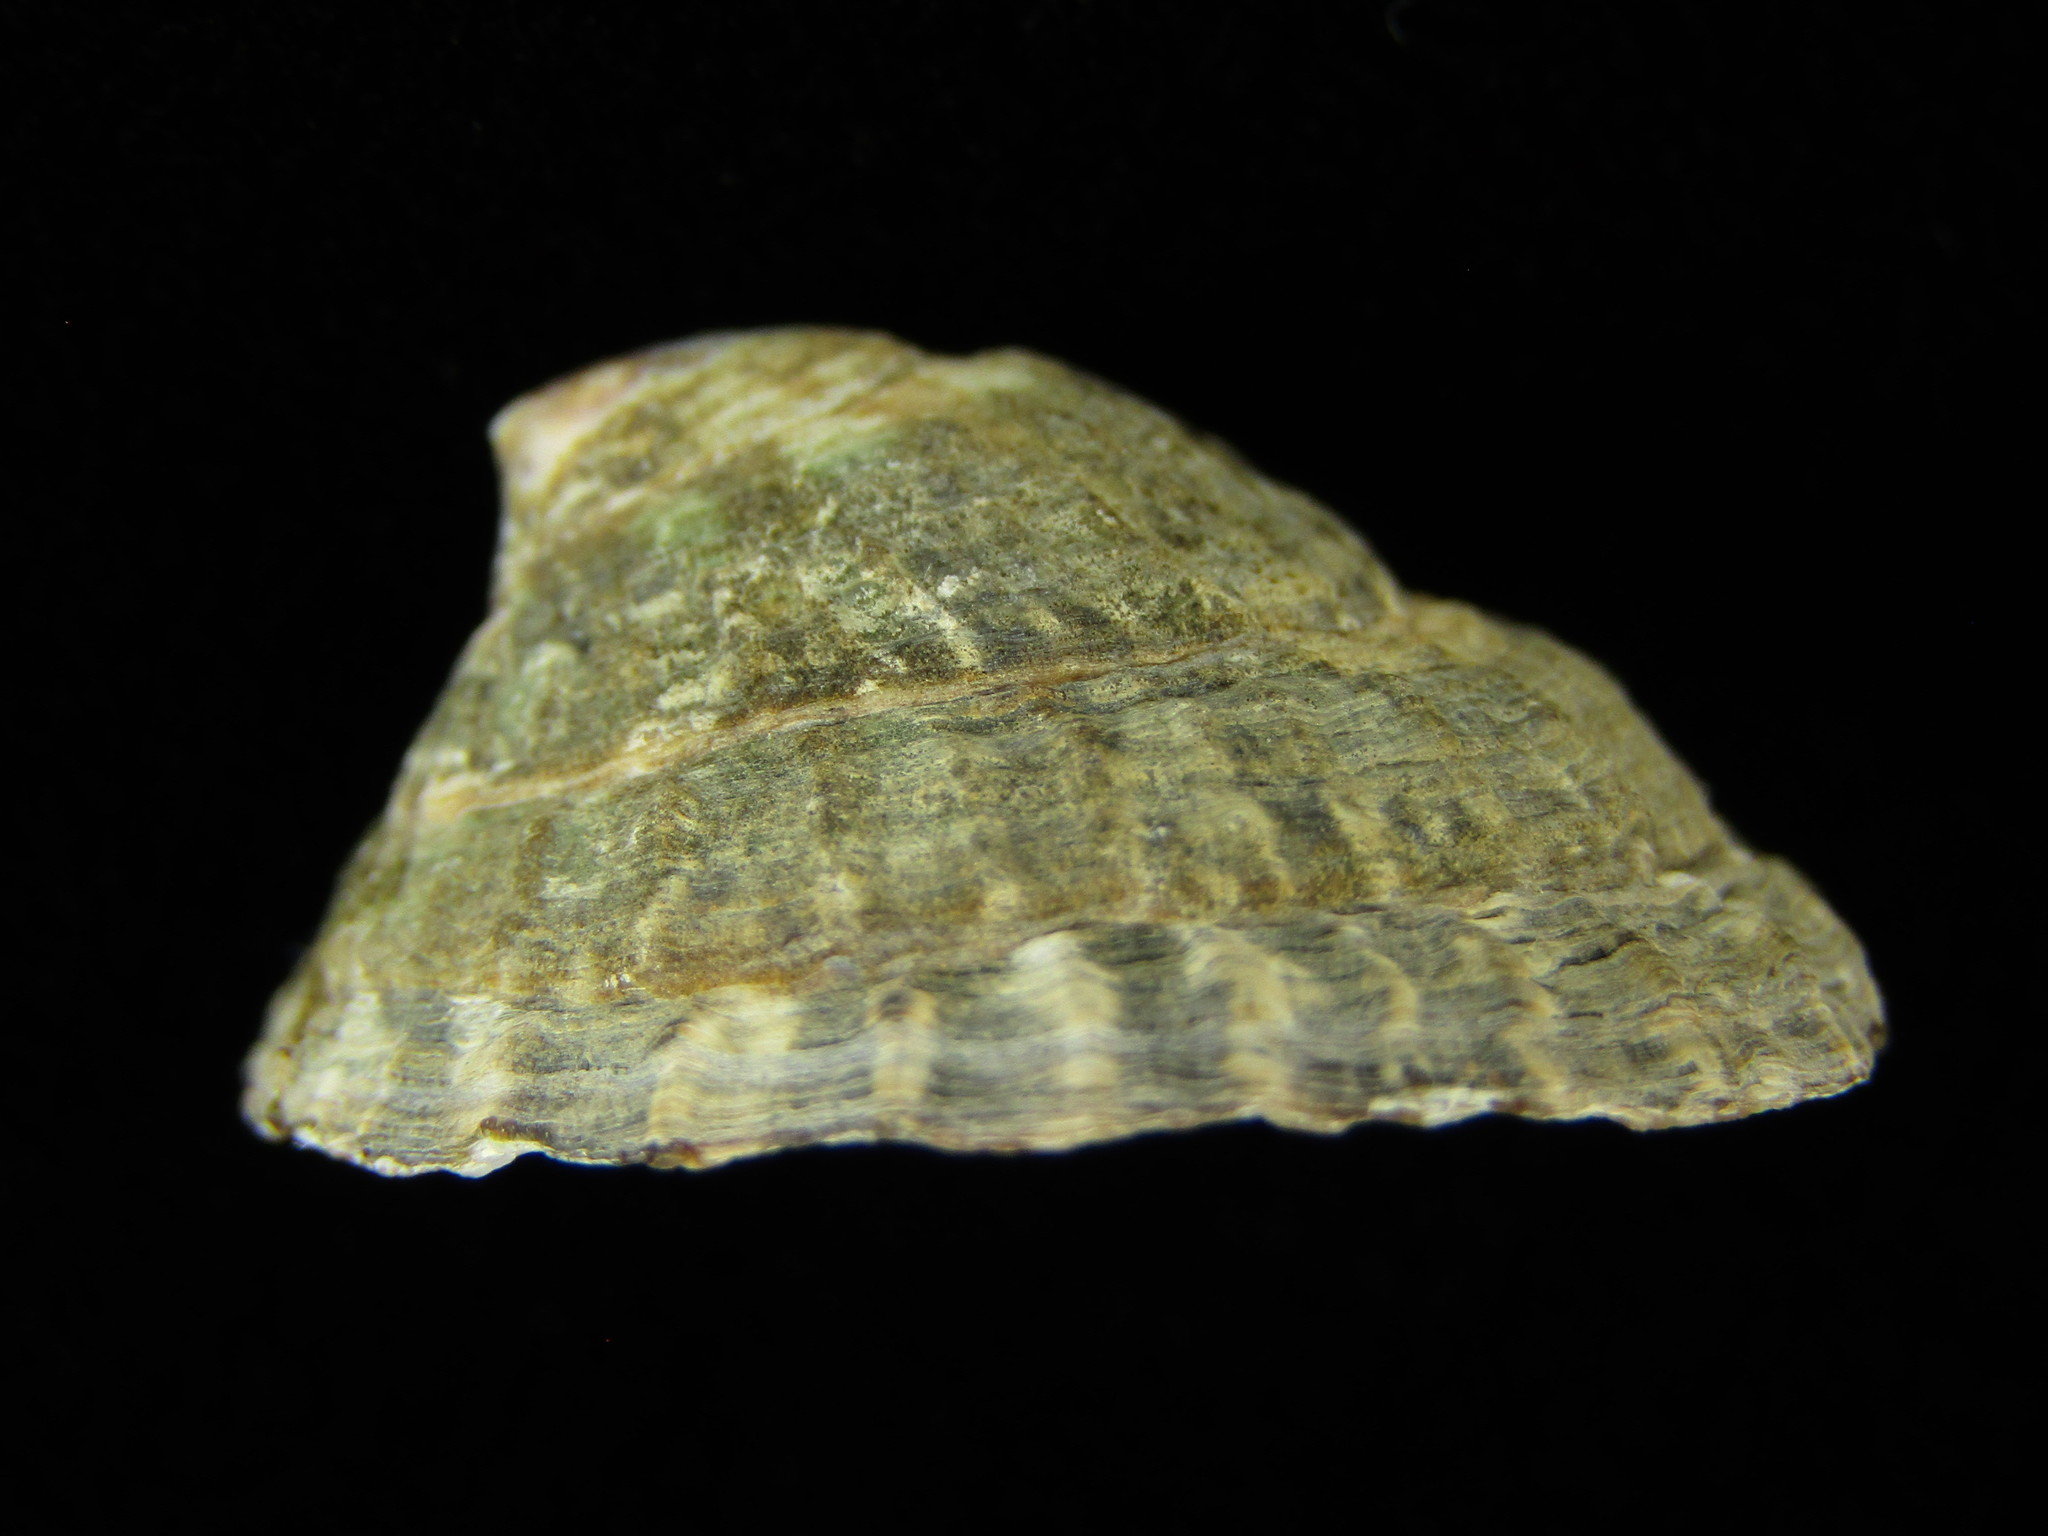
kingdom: Animalia
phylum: Mollusca
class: Gastropoda
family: Lottiidae
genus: Lottia
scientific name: Lottia dorsuosa
